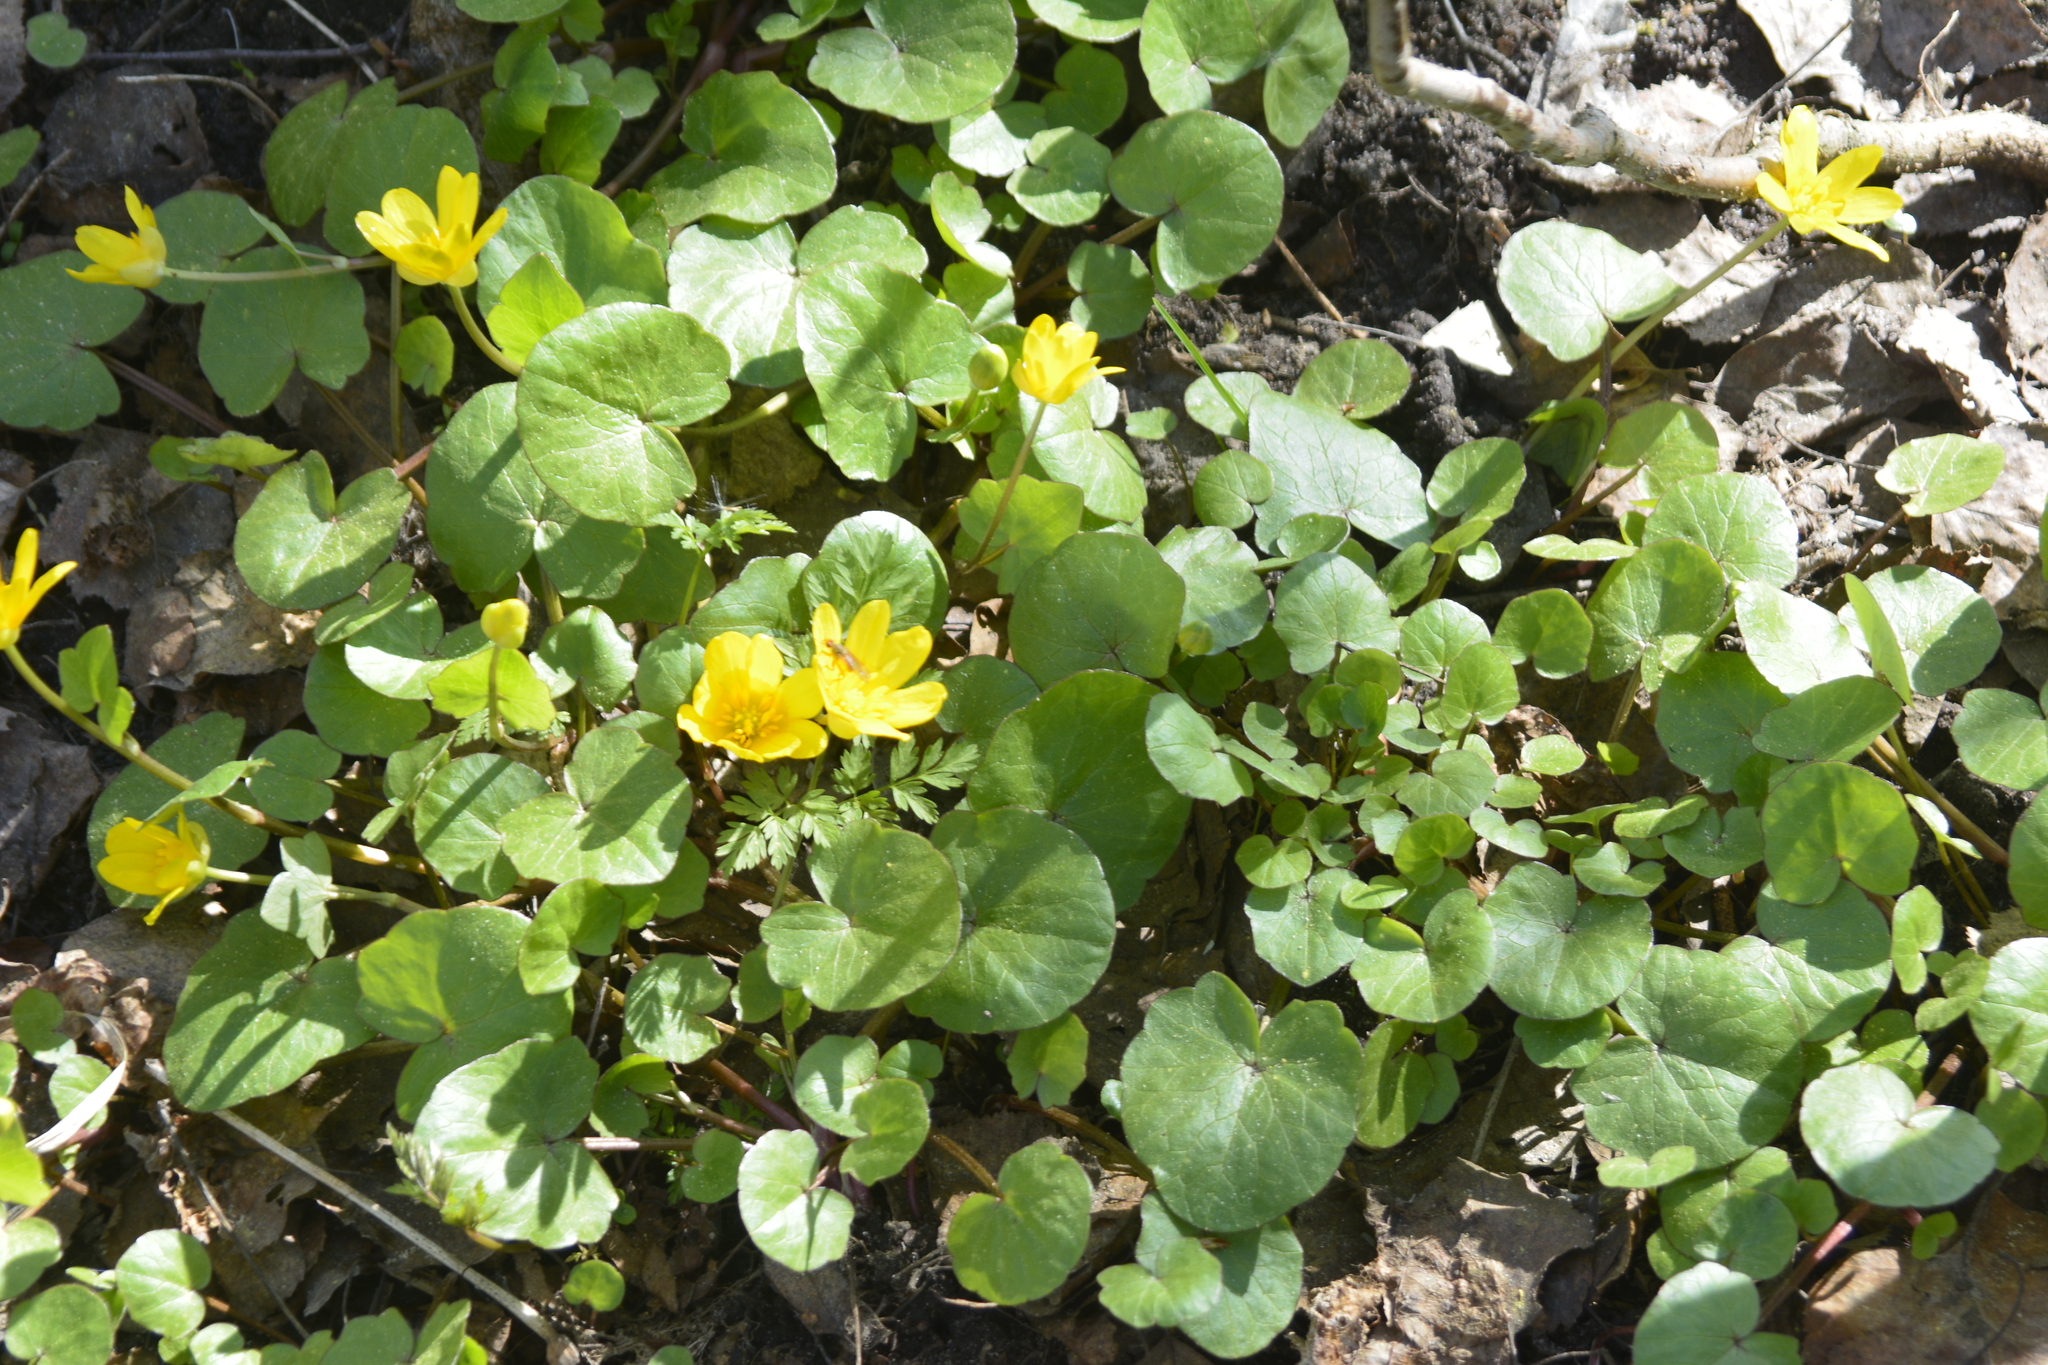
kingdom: Plantae
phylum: Tracheophyta
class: Magnoliopsida
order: Ranunculales
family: Ranunculaceae
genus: Ficaria
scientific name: Ficaria verna
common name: Lesser celandine
